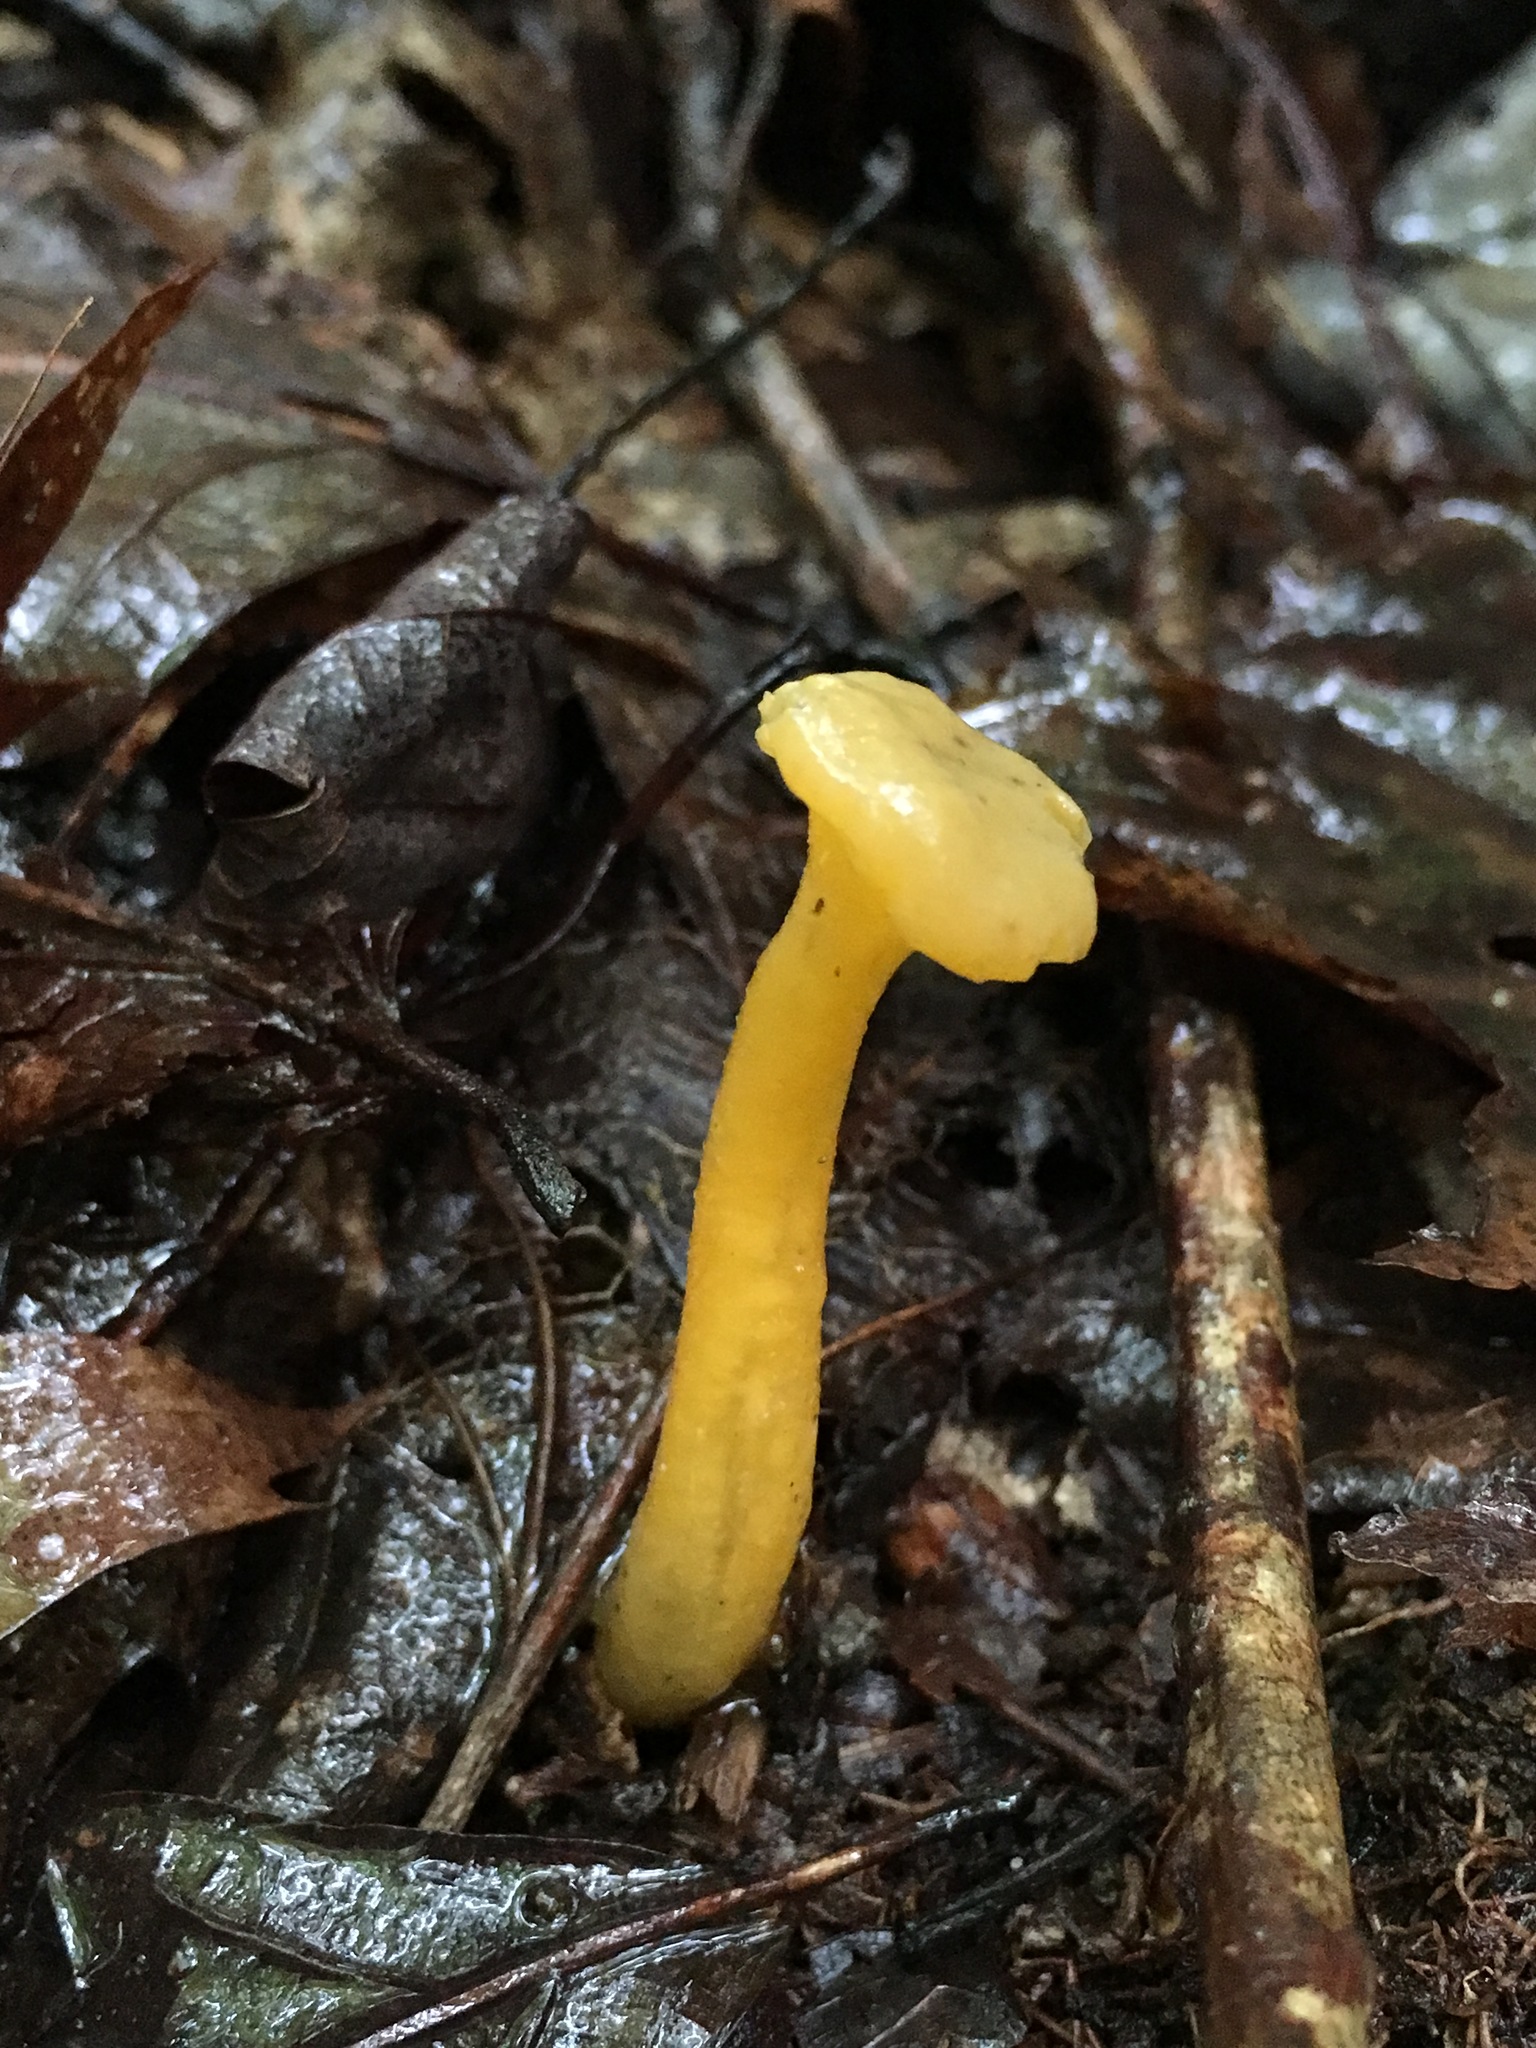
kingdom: Fungi
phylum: Ascomycota
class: Leotiomycetes
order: Leotiales
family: Leotiaceae
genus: Leotia
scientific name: Leotia lubrica
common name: Jellybaby
